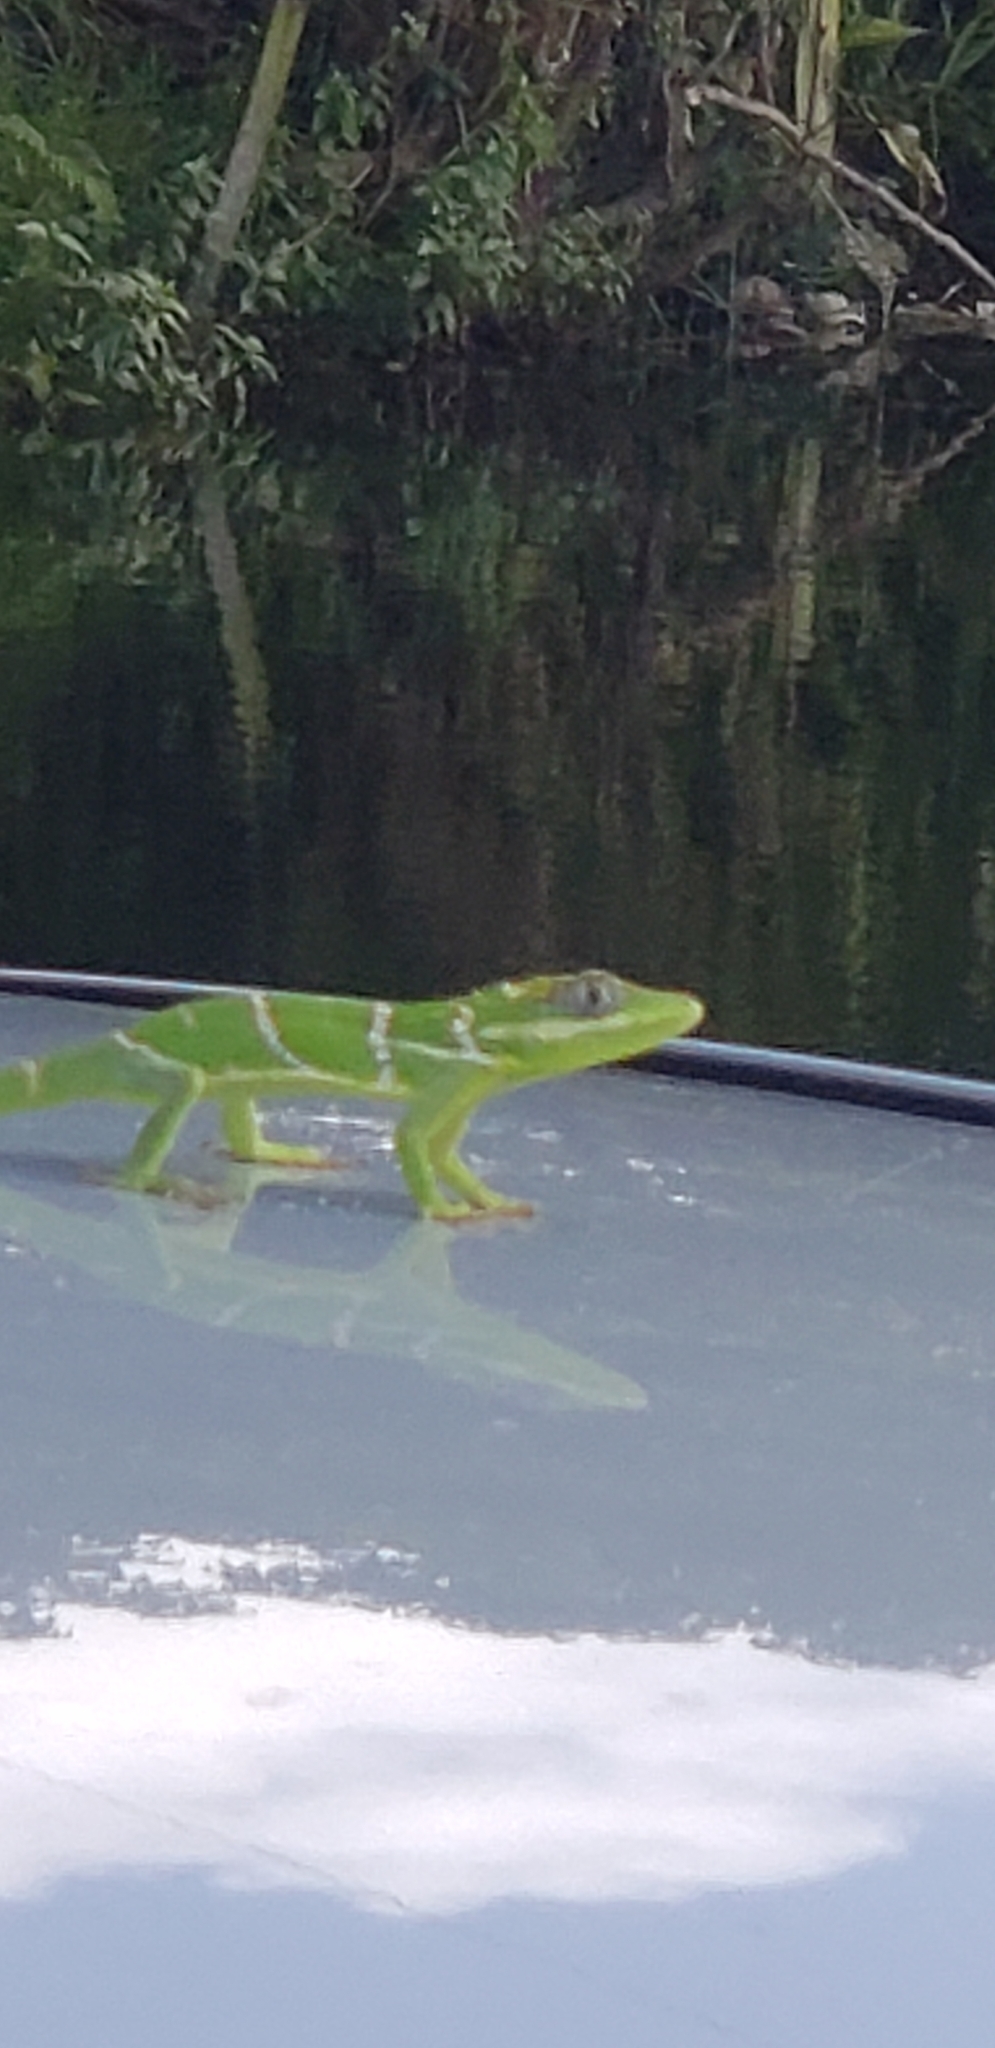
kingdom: Animalia
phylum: Chordata
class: Squamata
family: Dactyloidae
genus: Anolis
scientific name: Anolis equestris
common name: Knight anole
